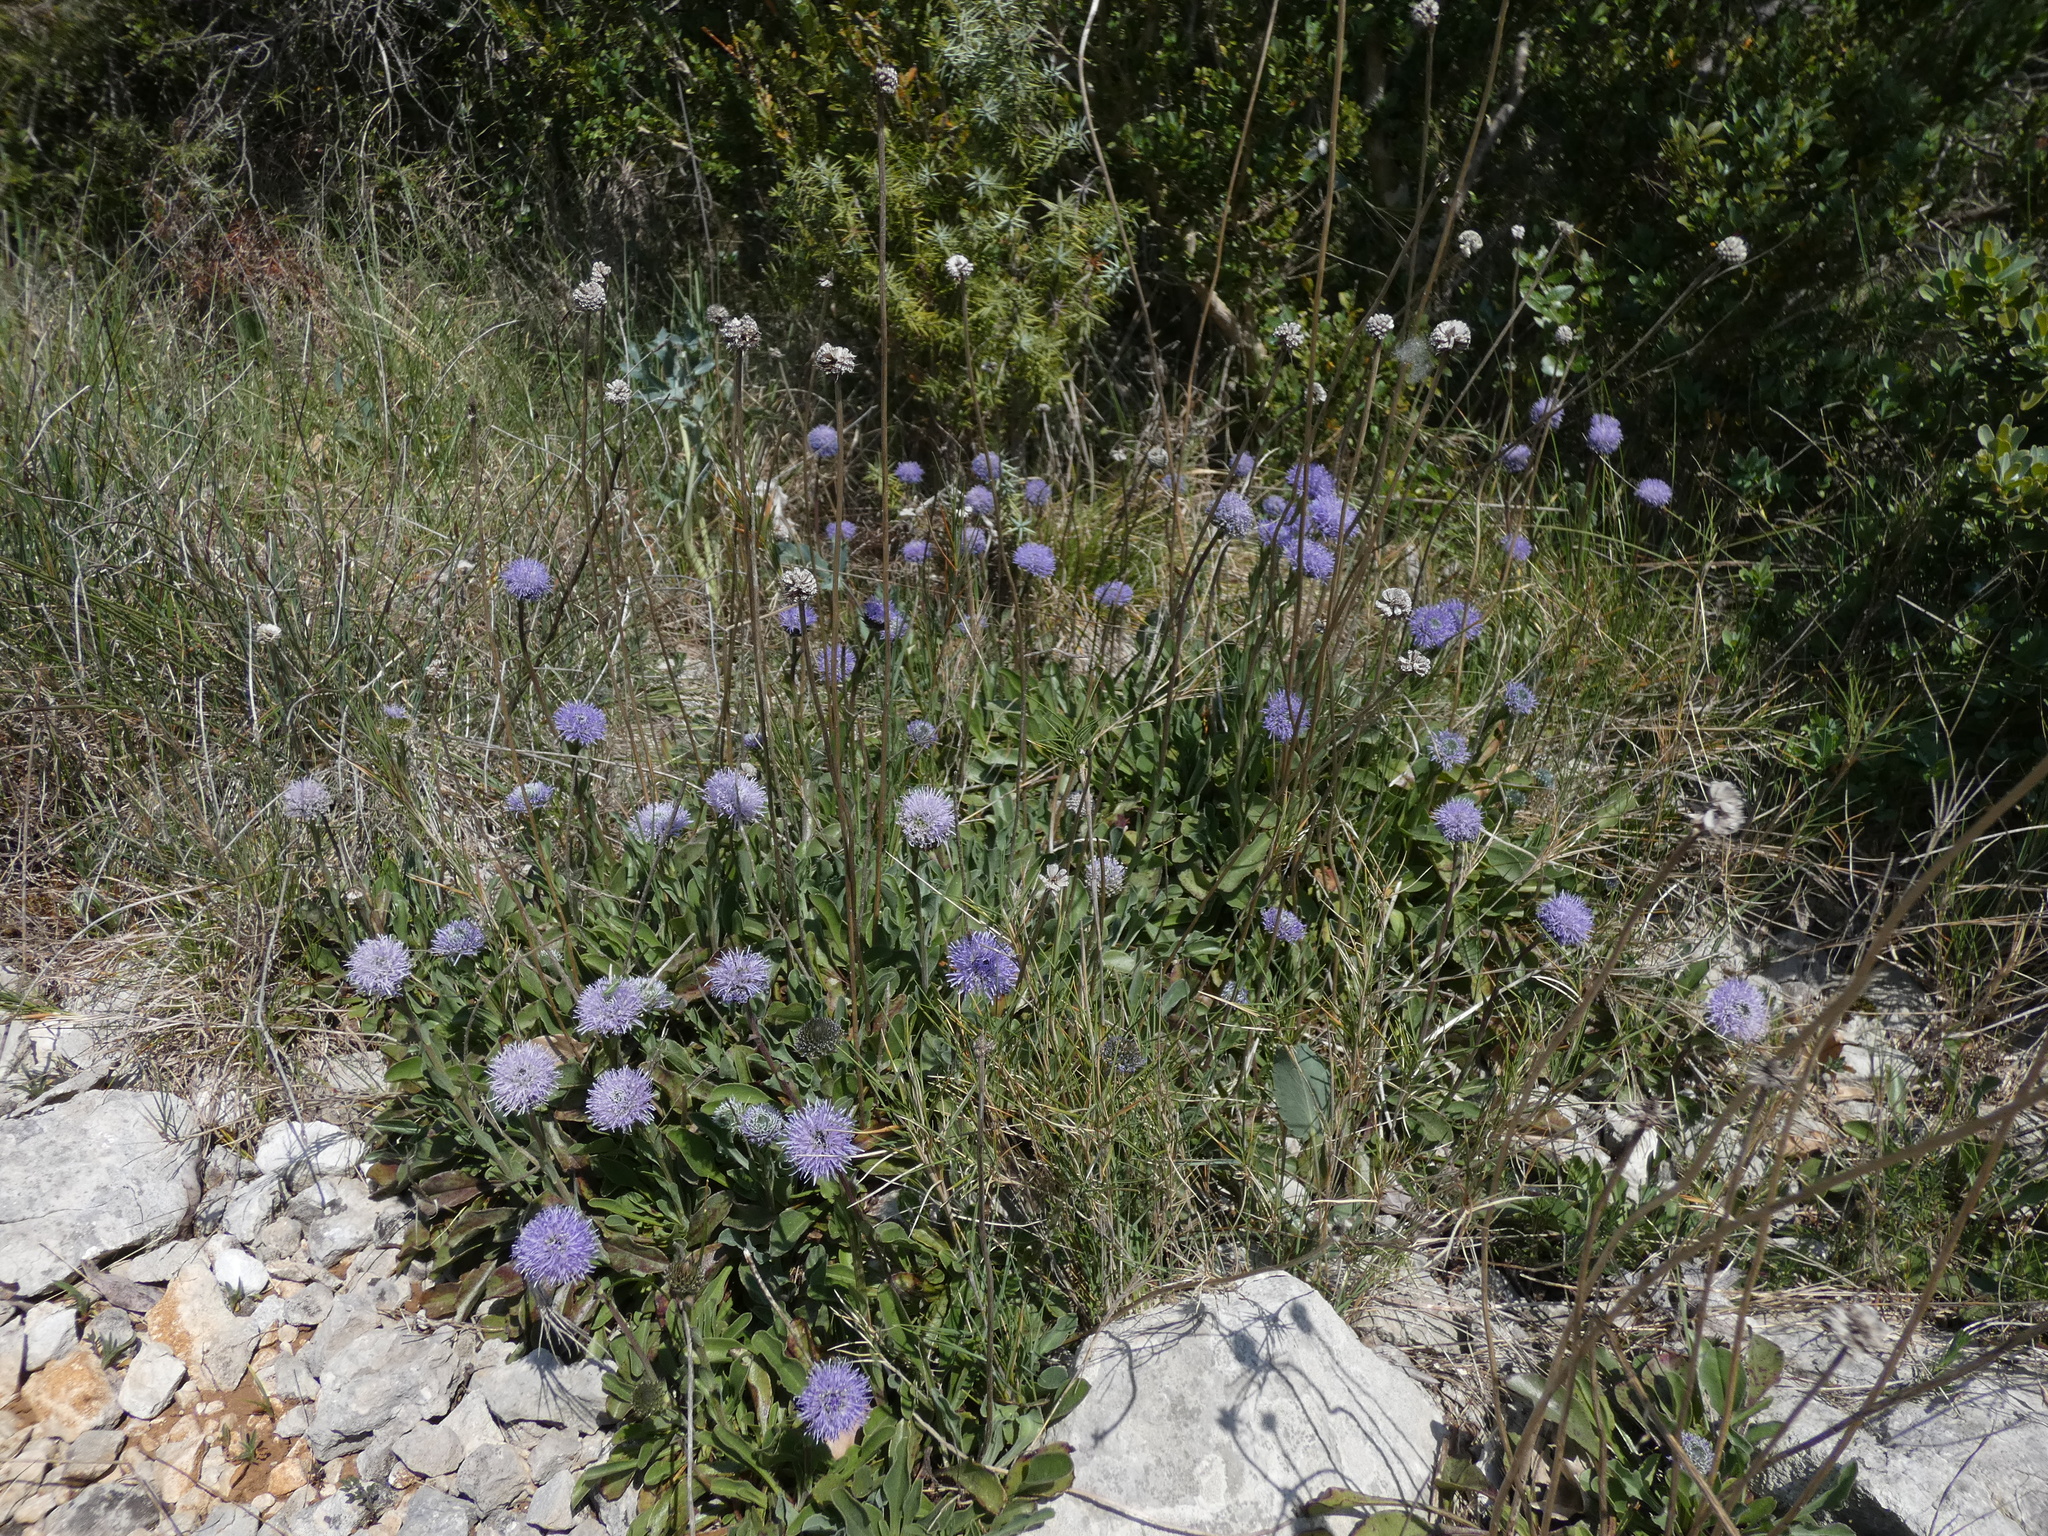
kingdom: Plantae
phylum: Tracheophyta
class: Magnoliopsida
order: Lamiales
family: Plantaginaceae
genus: Globularia
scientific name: Globularia vulgaris
